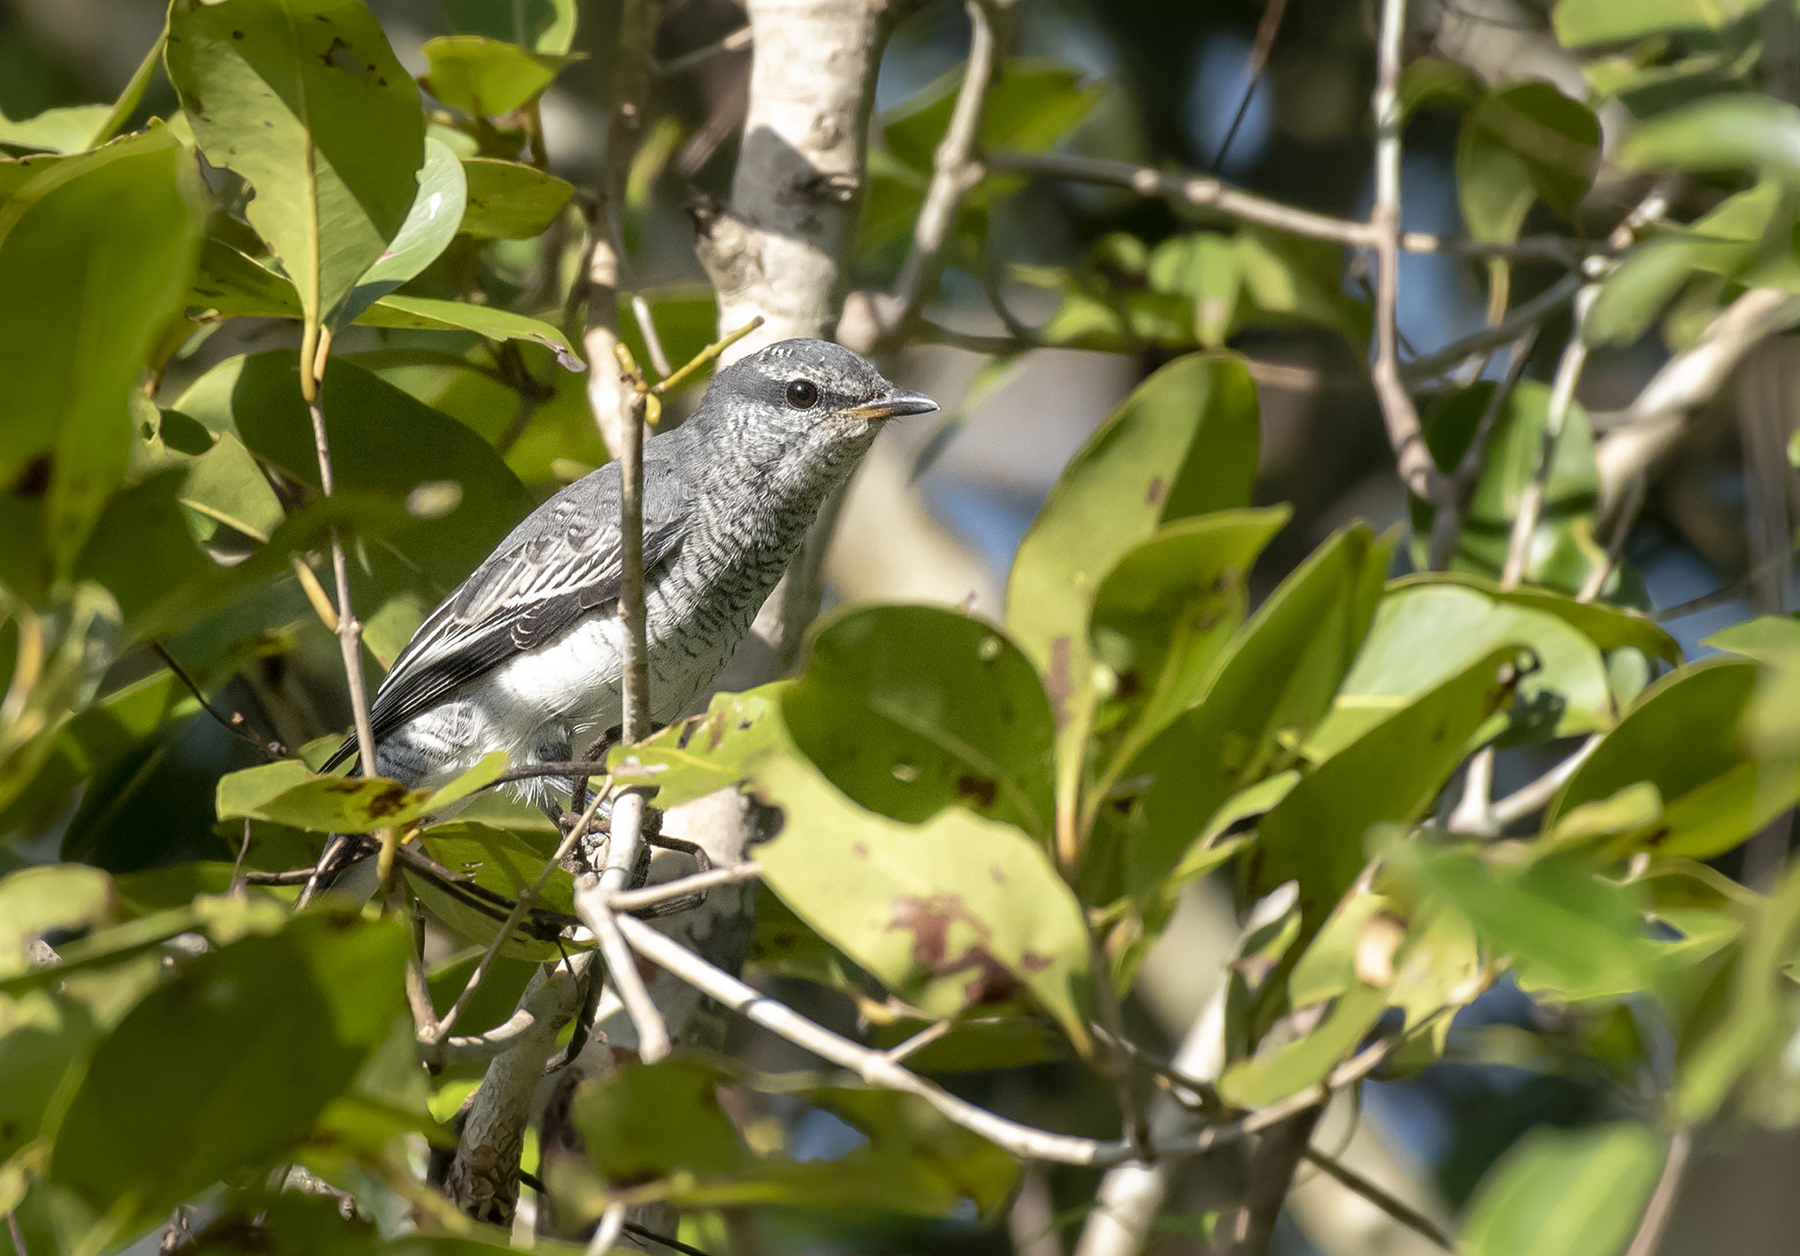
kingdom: Animalia
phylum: Chordata
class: Aves
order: Passeriformes
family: Campephagidae
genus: Coracina
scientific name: Coracina melanoptera
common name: Black-headed cuckooshrike
